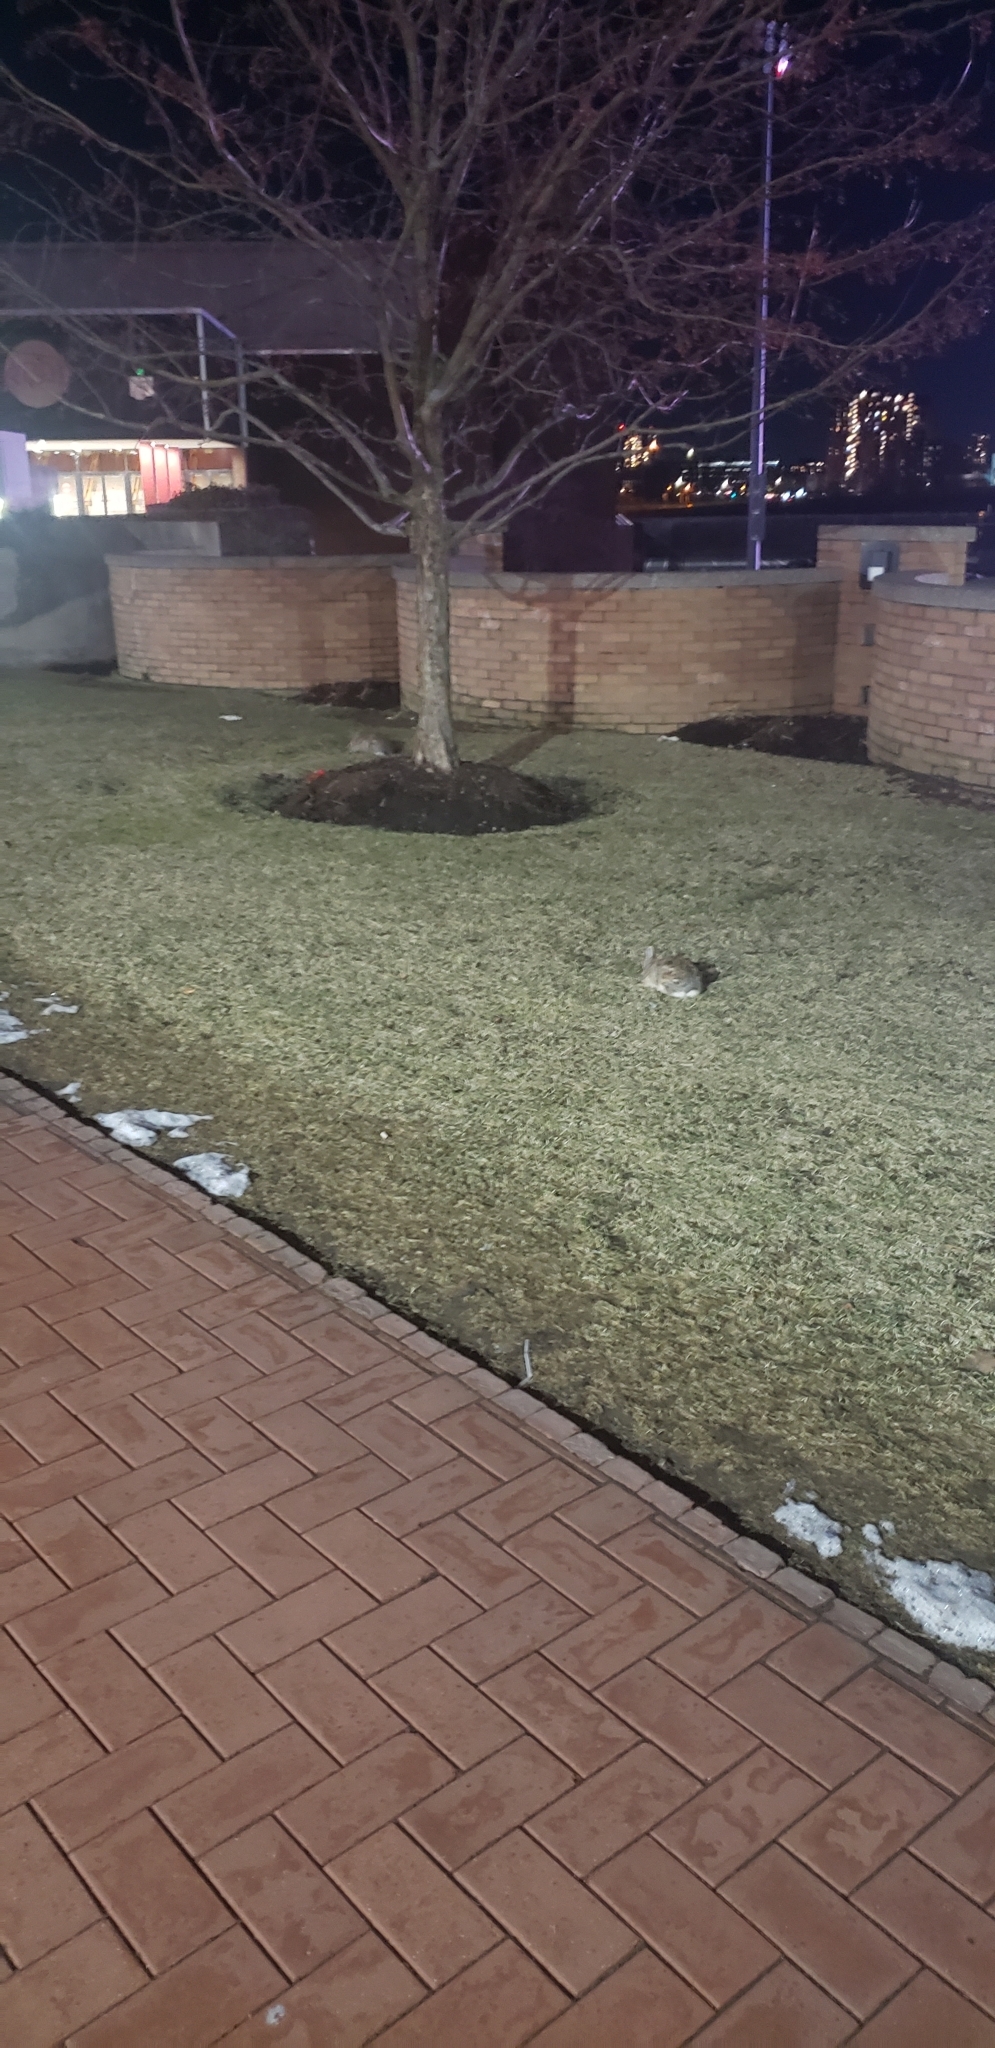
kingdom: Animalia
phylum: Chordata
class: Mammalia
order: Lagomorpha
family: Leporidae
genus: Sylvilagus
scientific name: Sylvilagus floridanus
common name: Eastern cottontail
